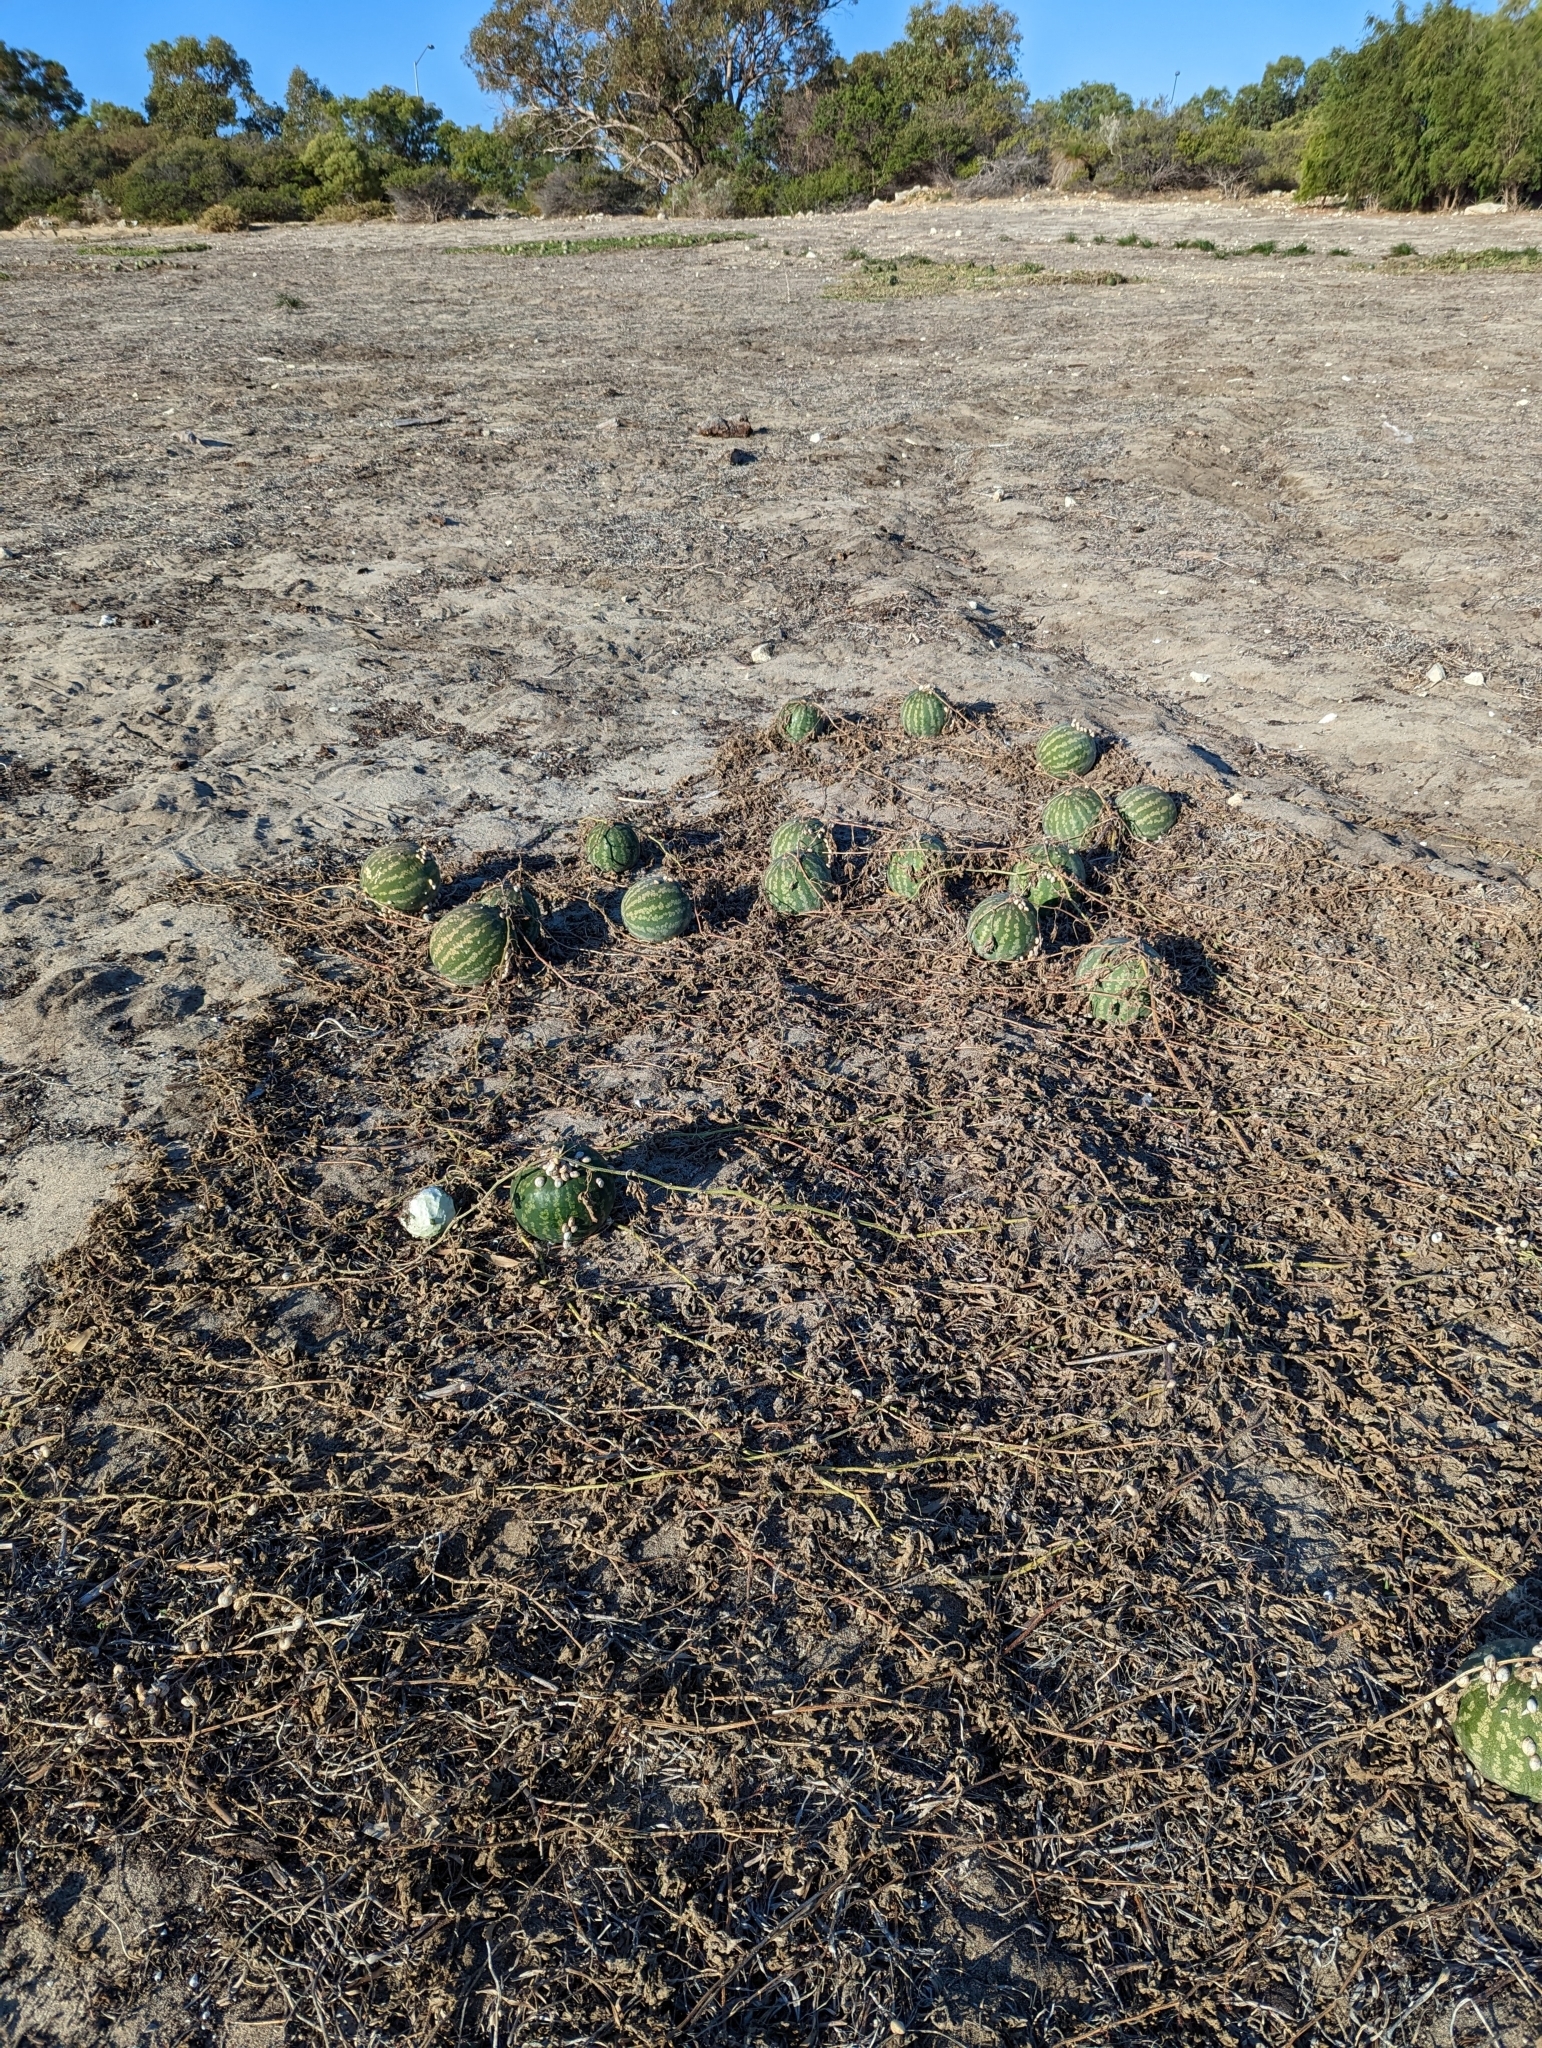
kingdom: Plantae
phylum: Tracheophyta
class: Magnoliopsida
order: Cucurbitales
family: Cucurbitaceae
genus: Citrullus
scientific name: Citrullus amarus
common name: Fodder-melon
